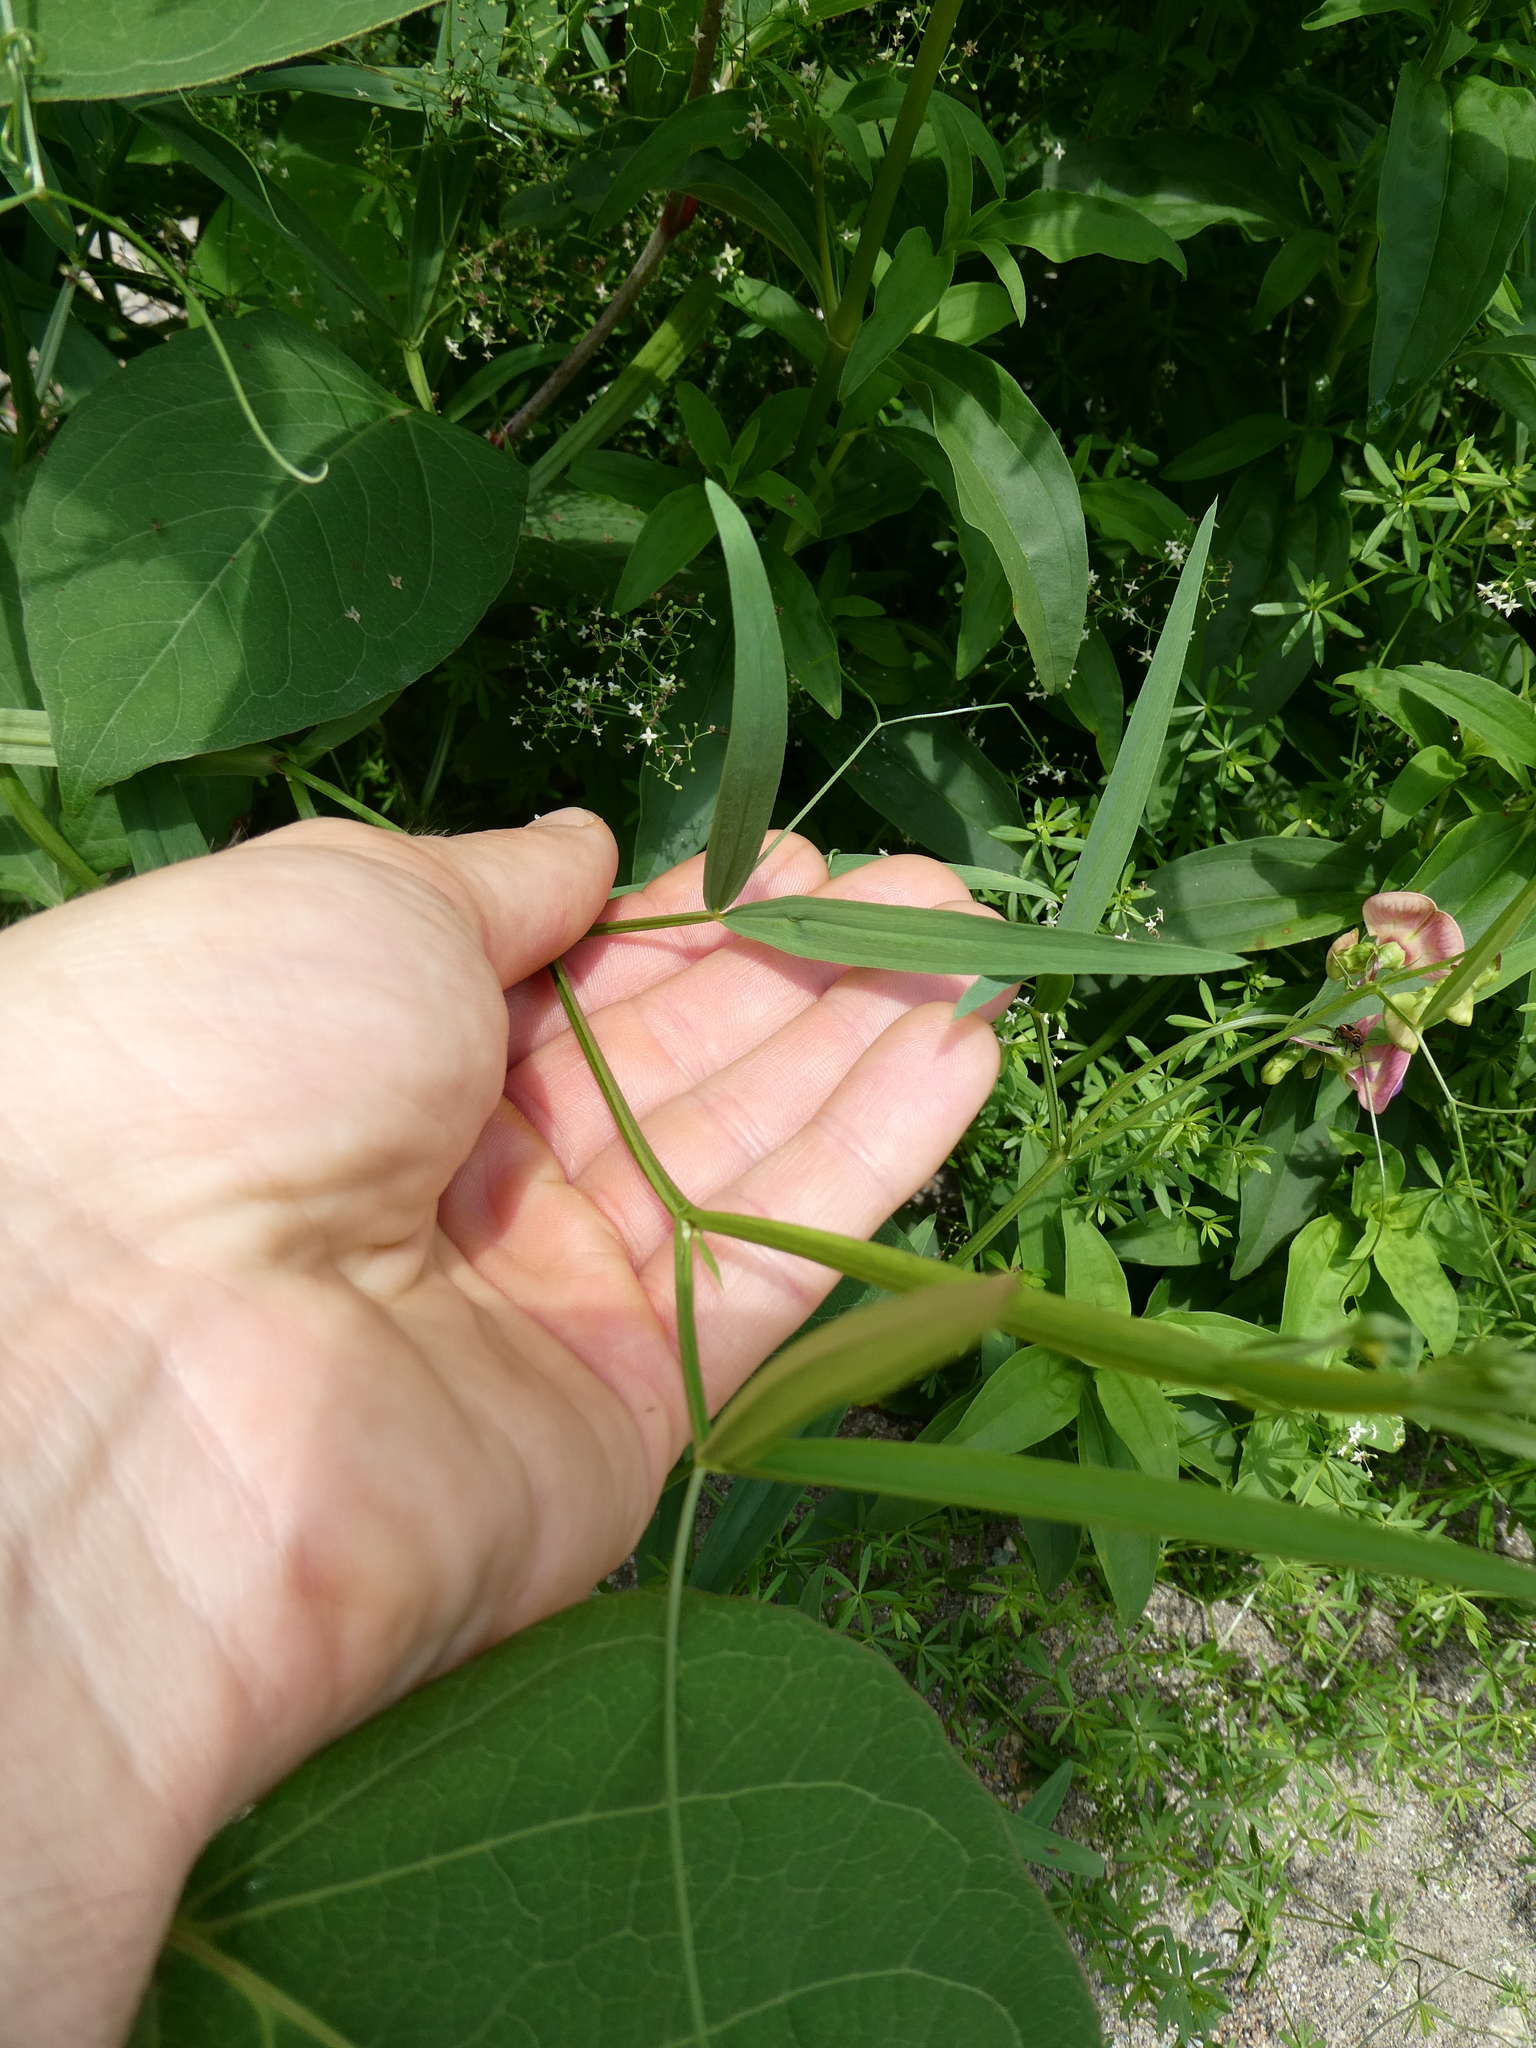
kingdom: Plantae
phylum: Tracheophyta
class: Magnoliopsida
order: Fabales
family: Fabaceae
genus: Lathyrus
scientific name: Lathyrus sylvestris
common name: Flat pea
